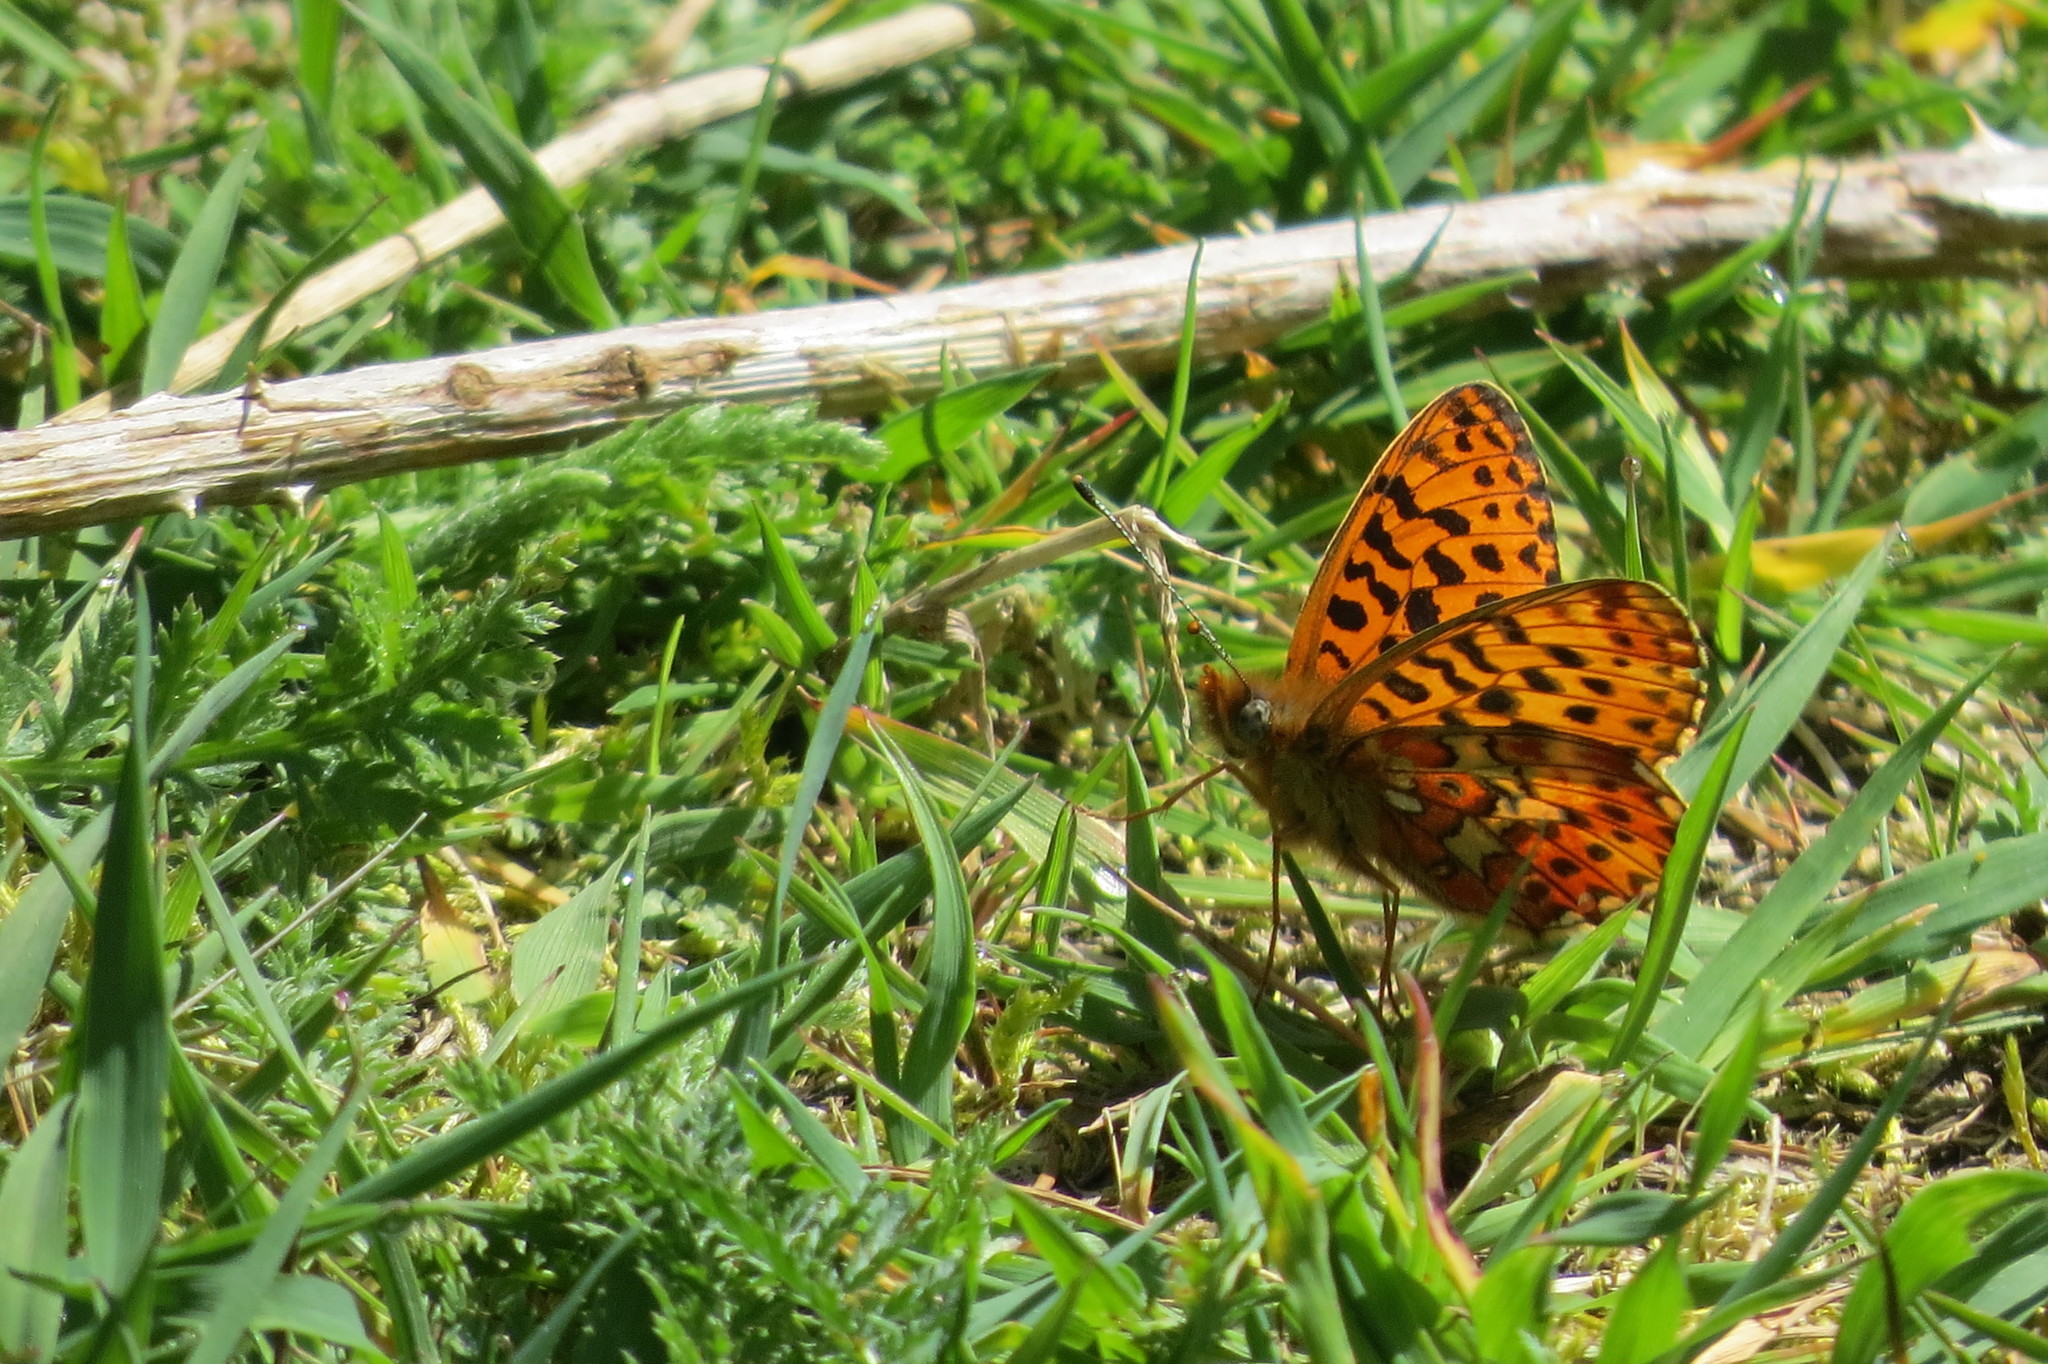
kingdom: Animalia
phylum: Arthropoda
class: Insecta
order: Lepidoptera
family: Nymphalidae
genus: Clossiana
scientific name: Clossiana euphrosyne
